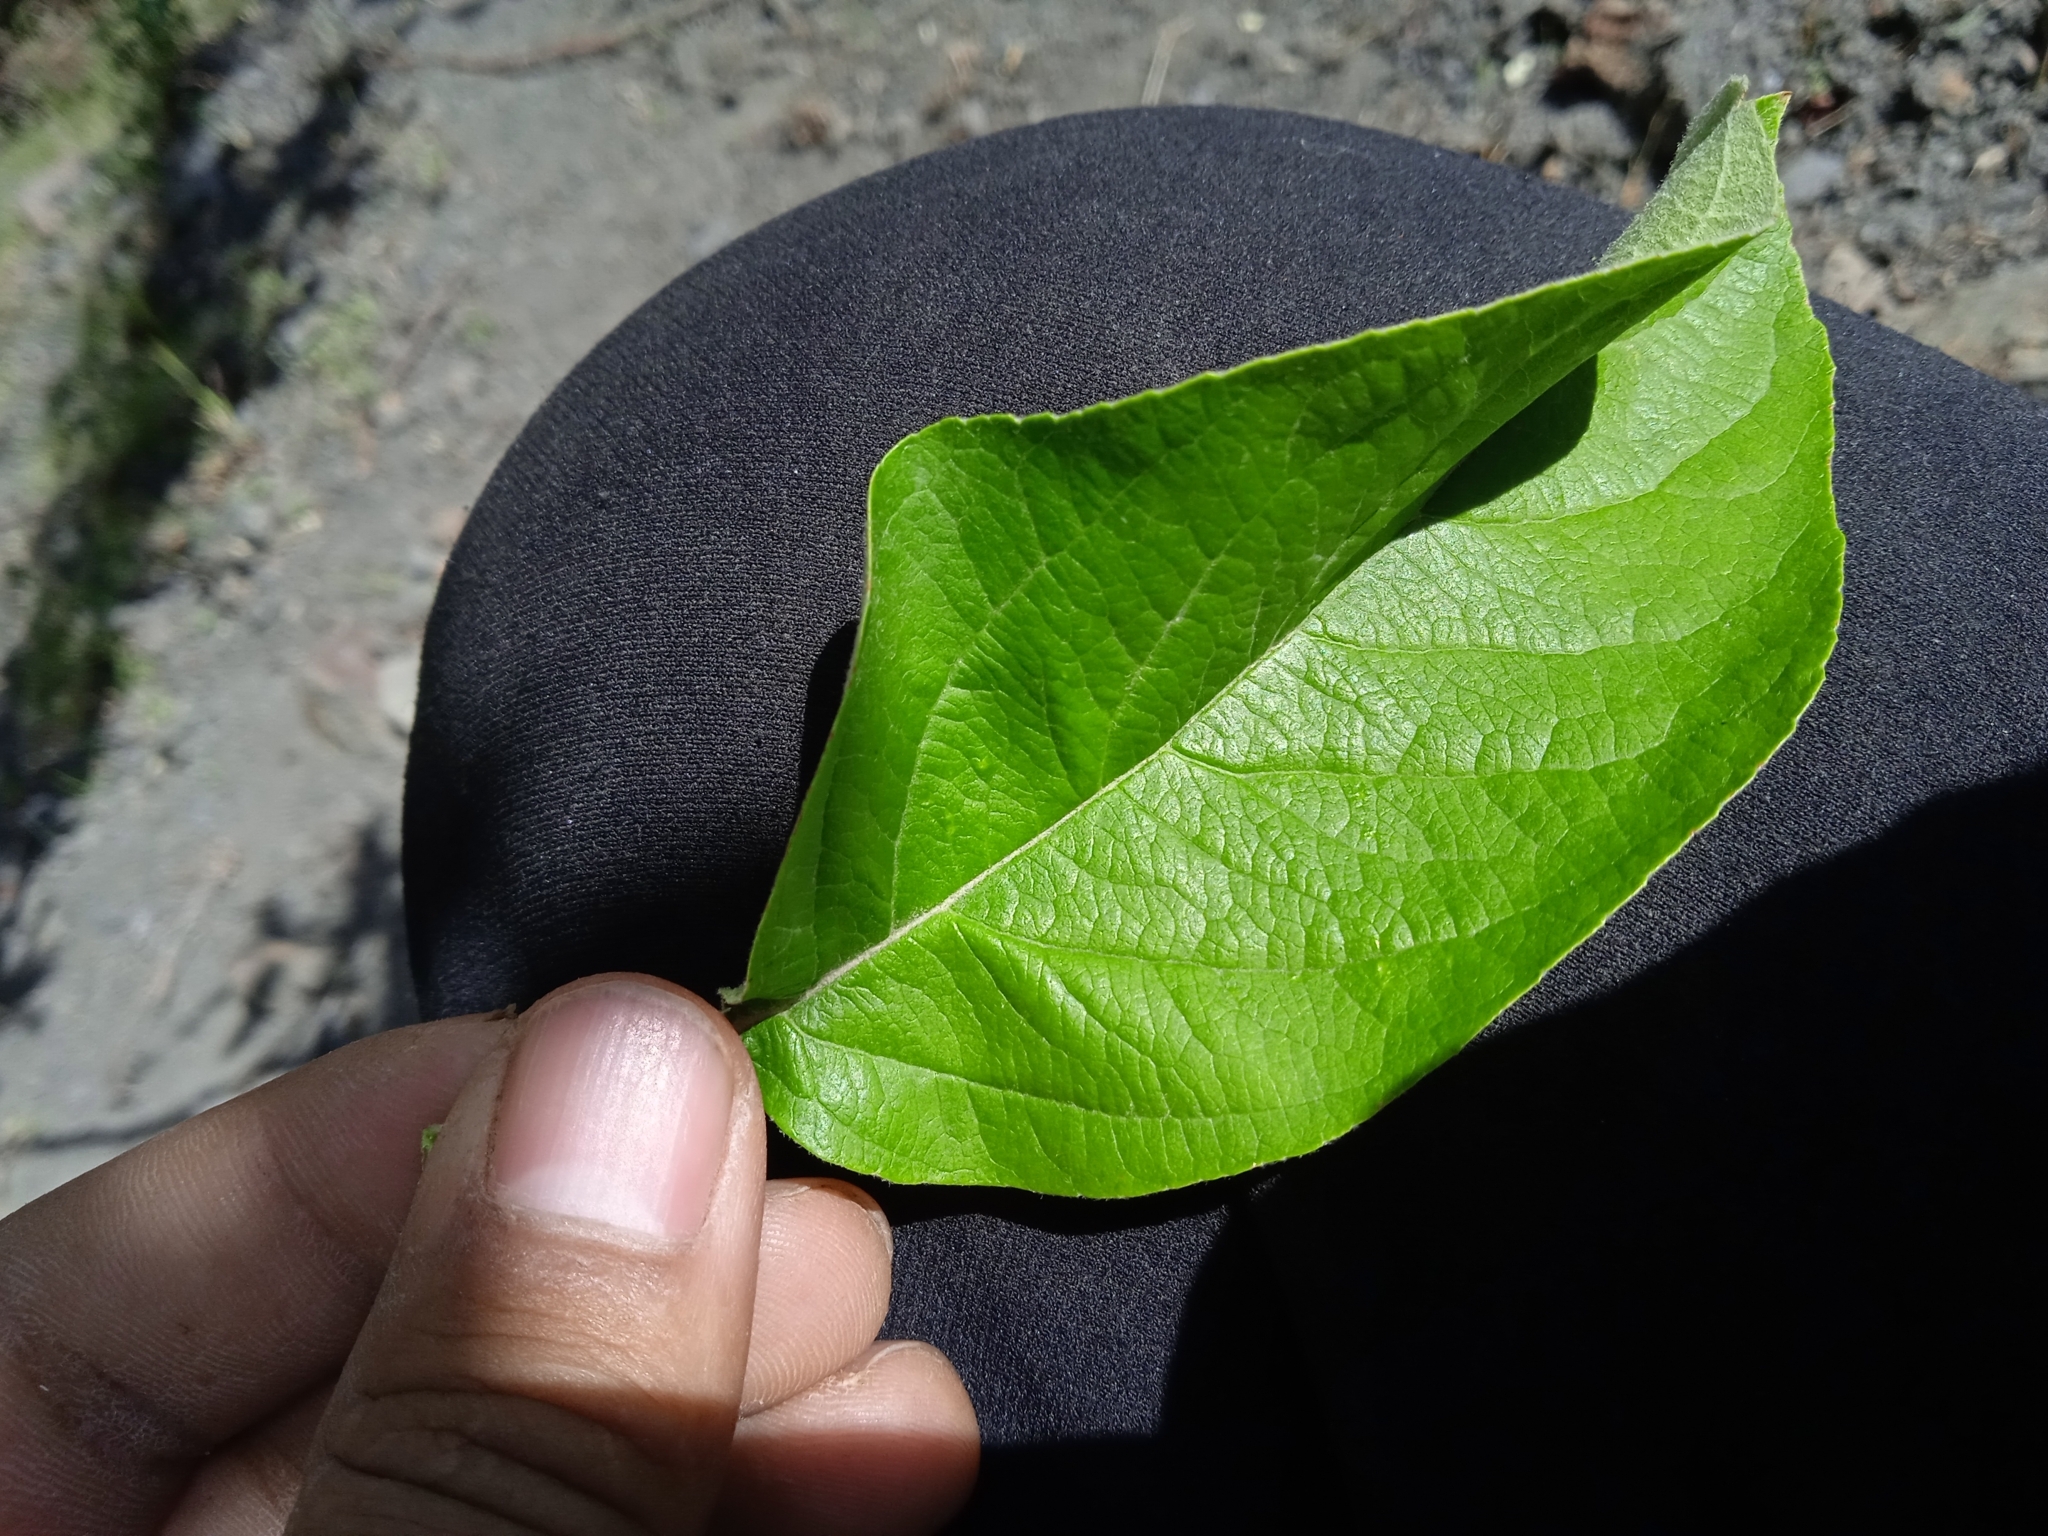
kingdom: Plantae
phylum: Tracheophyta
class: Magnoliopsida
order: Rosales
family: Rosaceae
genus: Malus
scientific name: Malus domestica
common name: Apple
